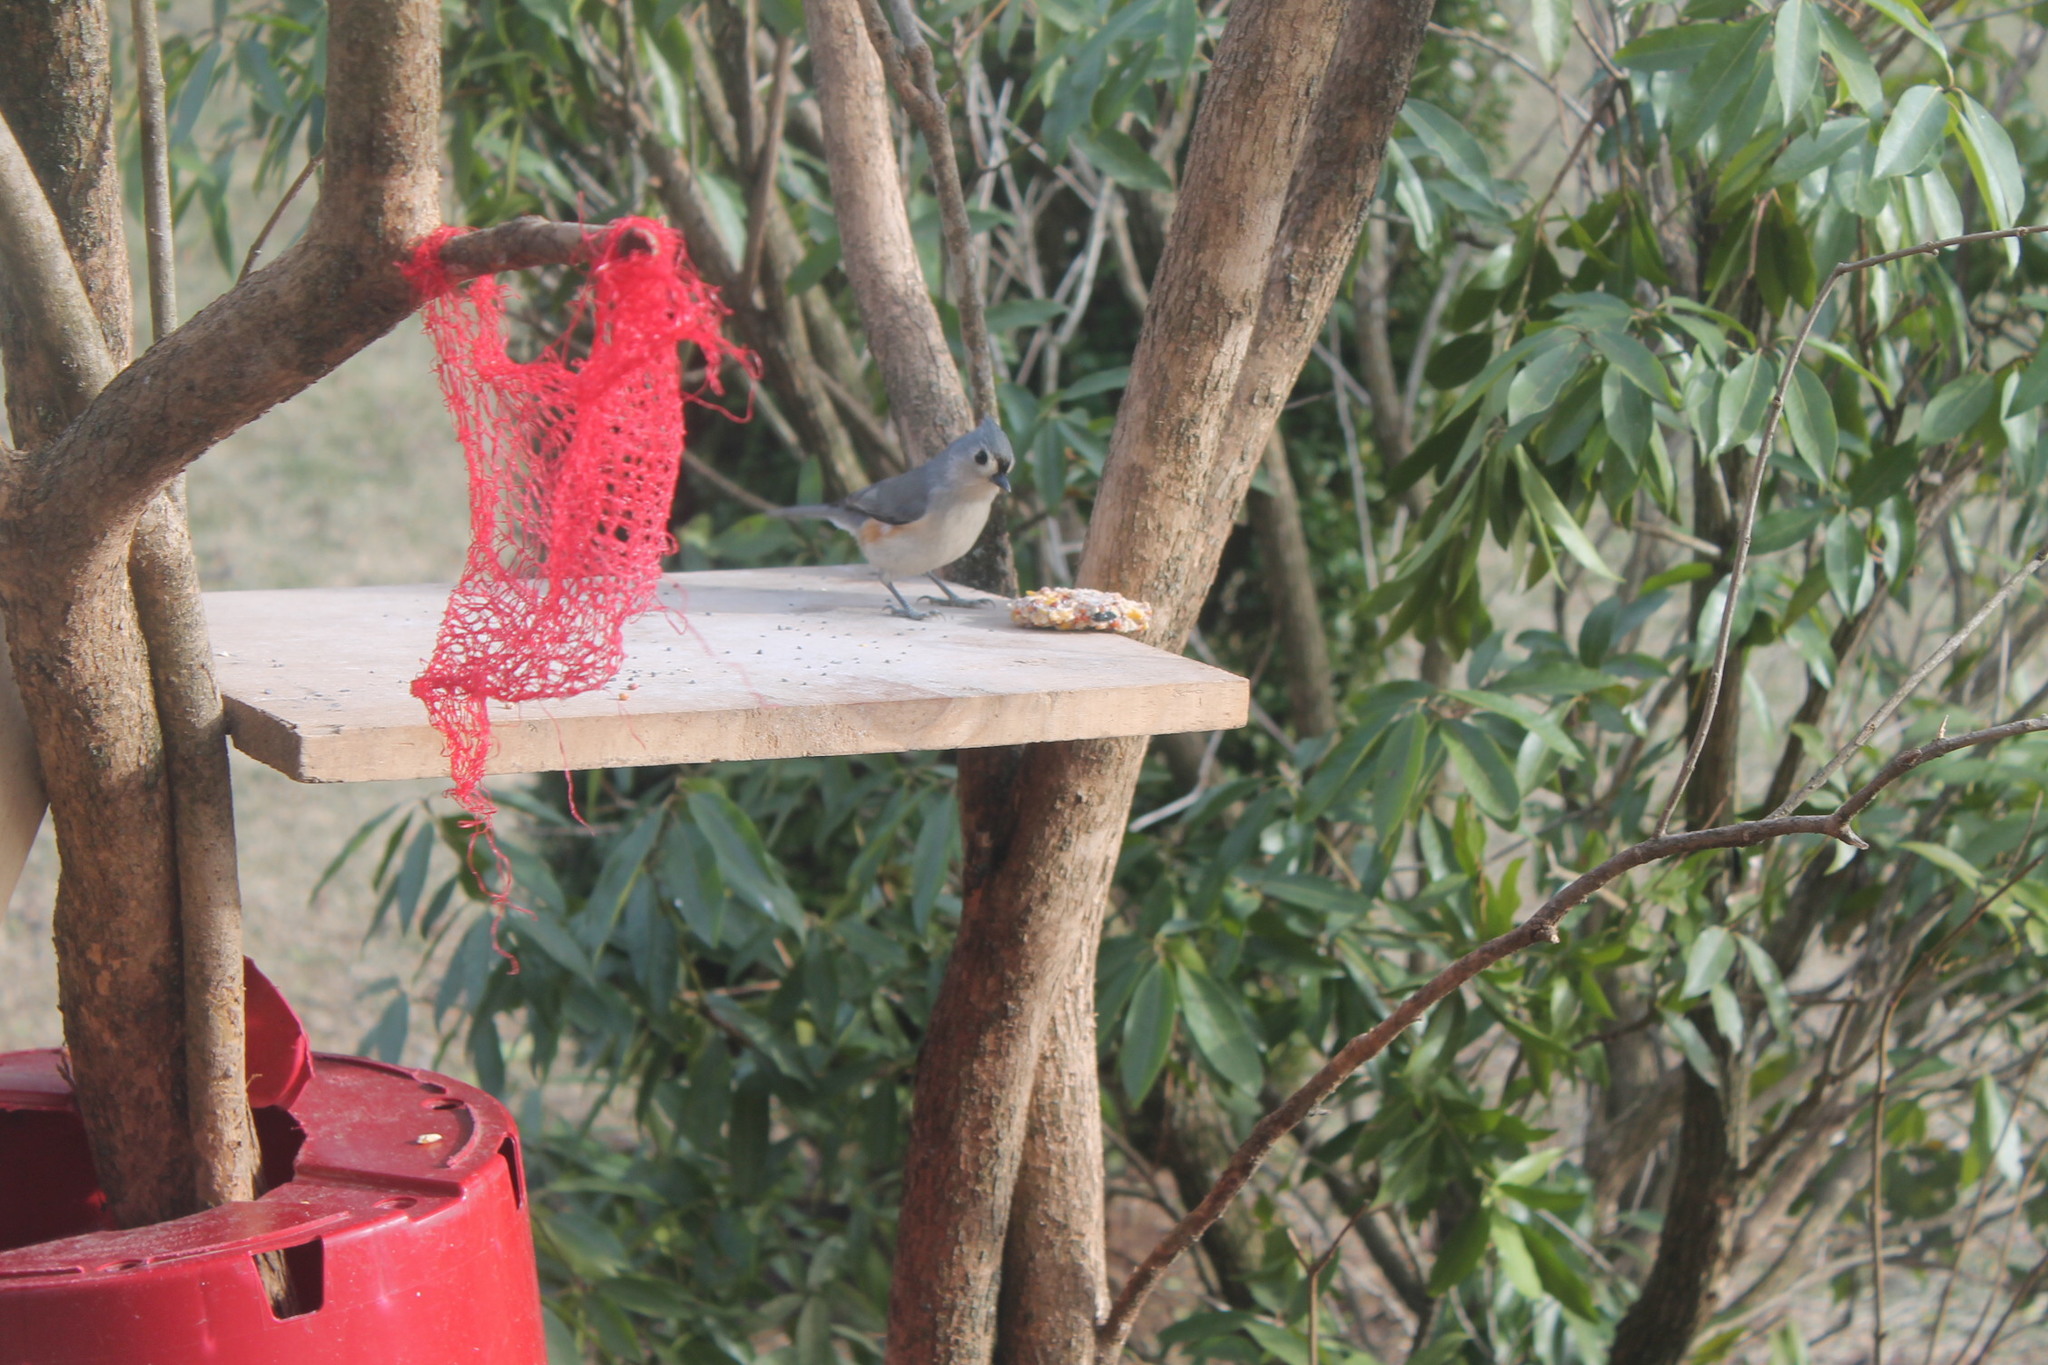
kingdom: Animalia
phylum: Chordata
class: Aves
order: Passeriformes
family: Paridae
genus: Baeolophus
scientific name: Baeolophus bicolor
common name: Tufted titmouse
